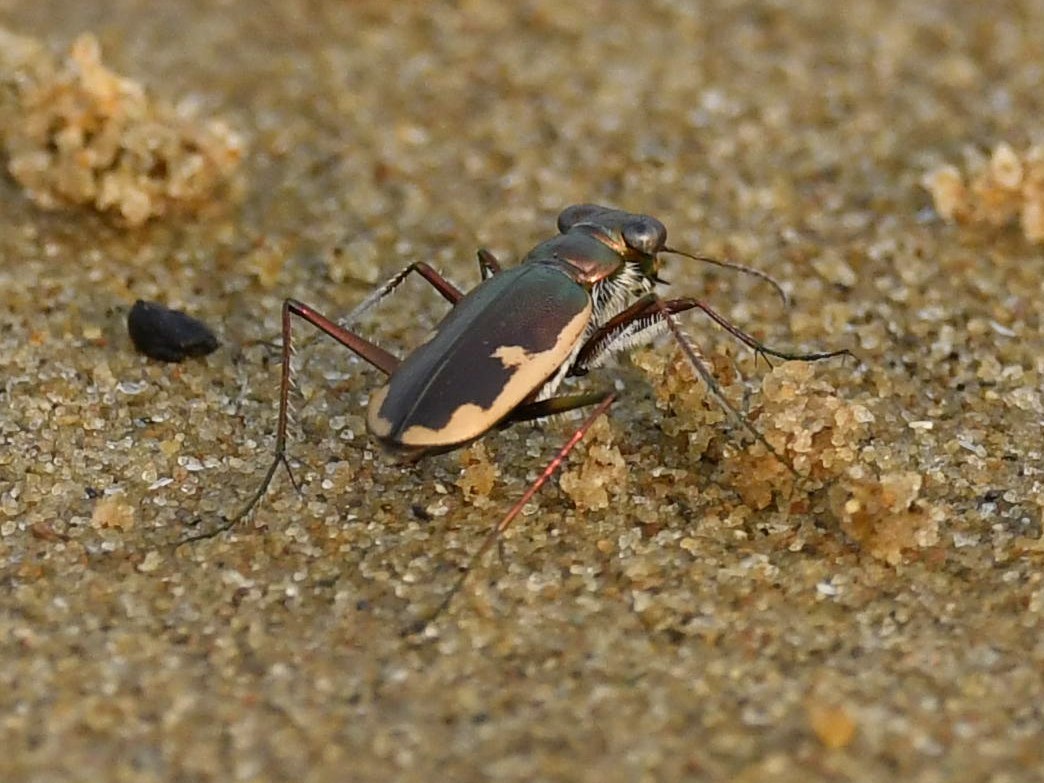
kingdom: Animalia
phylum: Arthropoda
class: Insecta
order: Coleoptera
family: Carabidae
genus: Hypaetha
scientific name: Hypaetha biramosa
